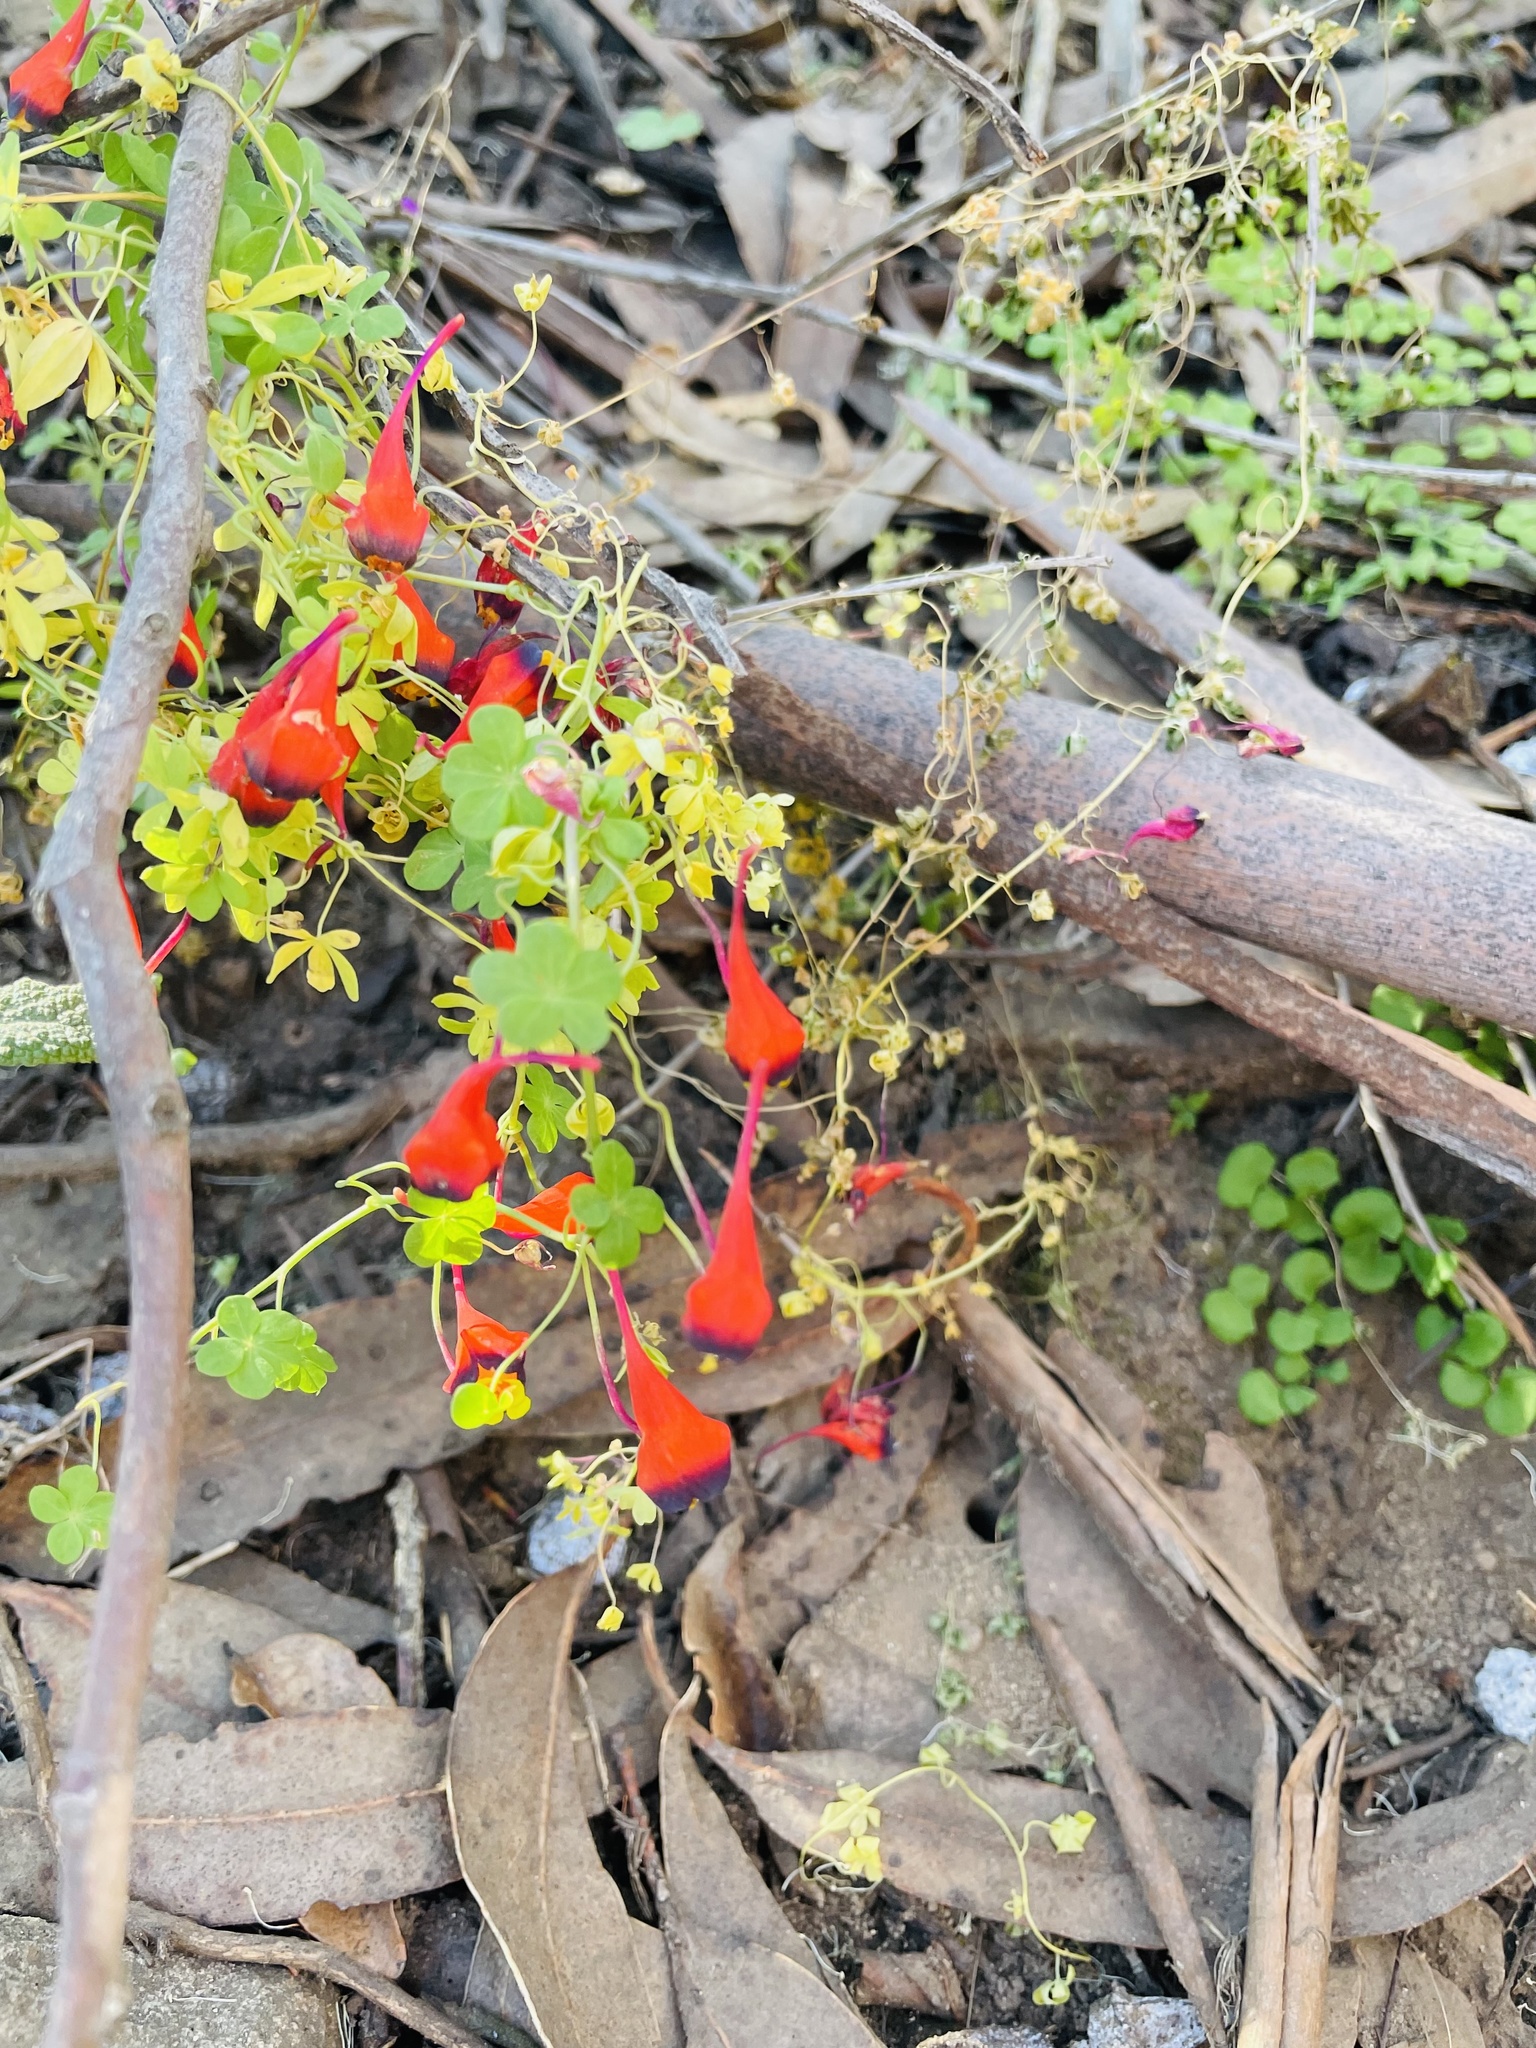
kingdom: Plantae
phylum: Tracheophyta
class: Magnoliopsida
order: Brassicales
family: Tropaeolaceae
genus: Tropaeolum
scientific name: Tropaeolum tricolor
